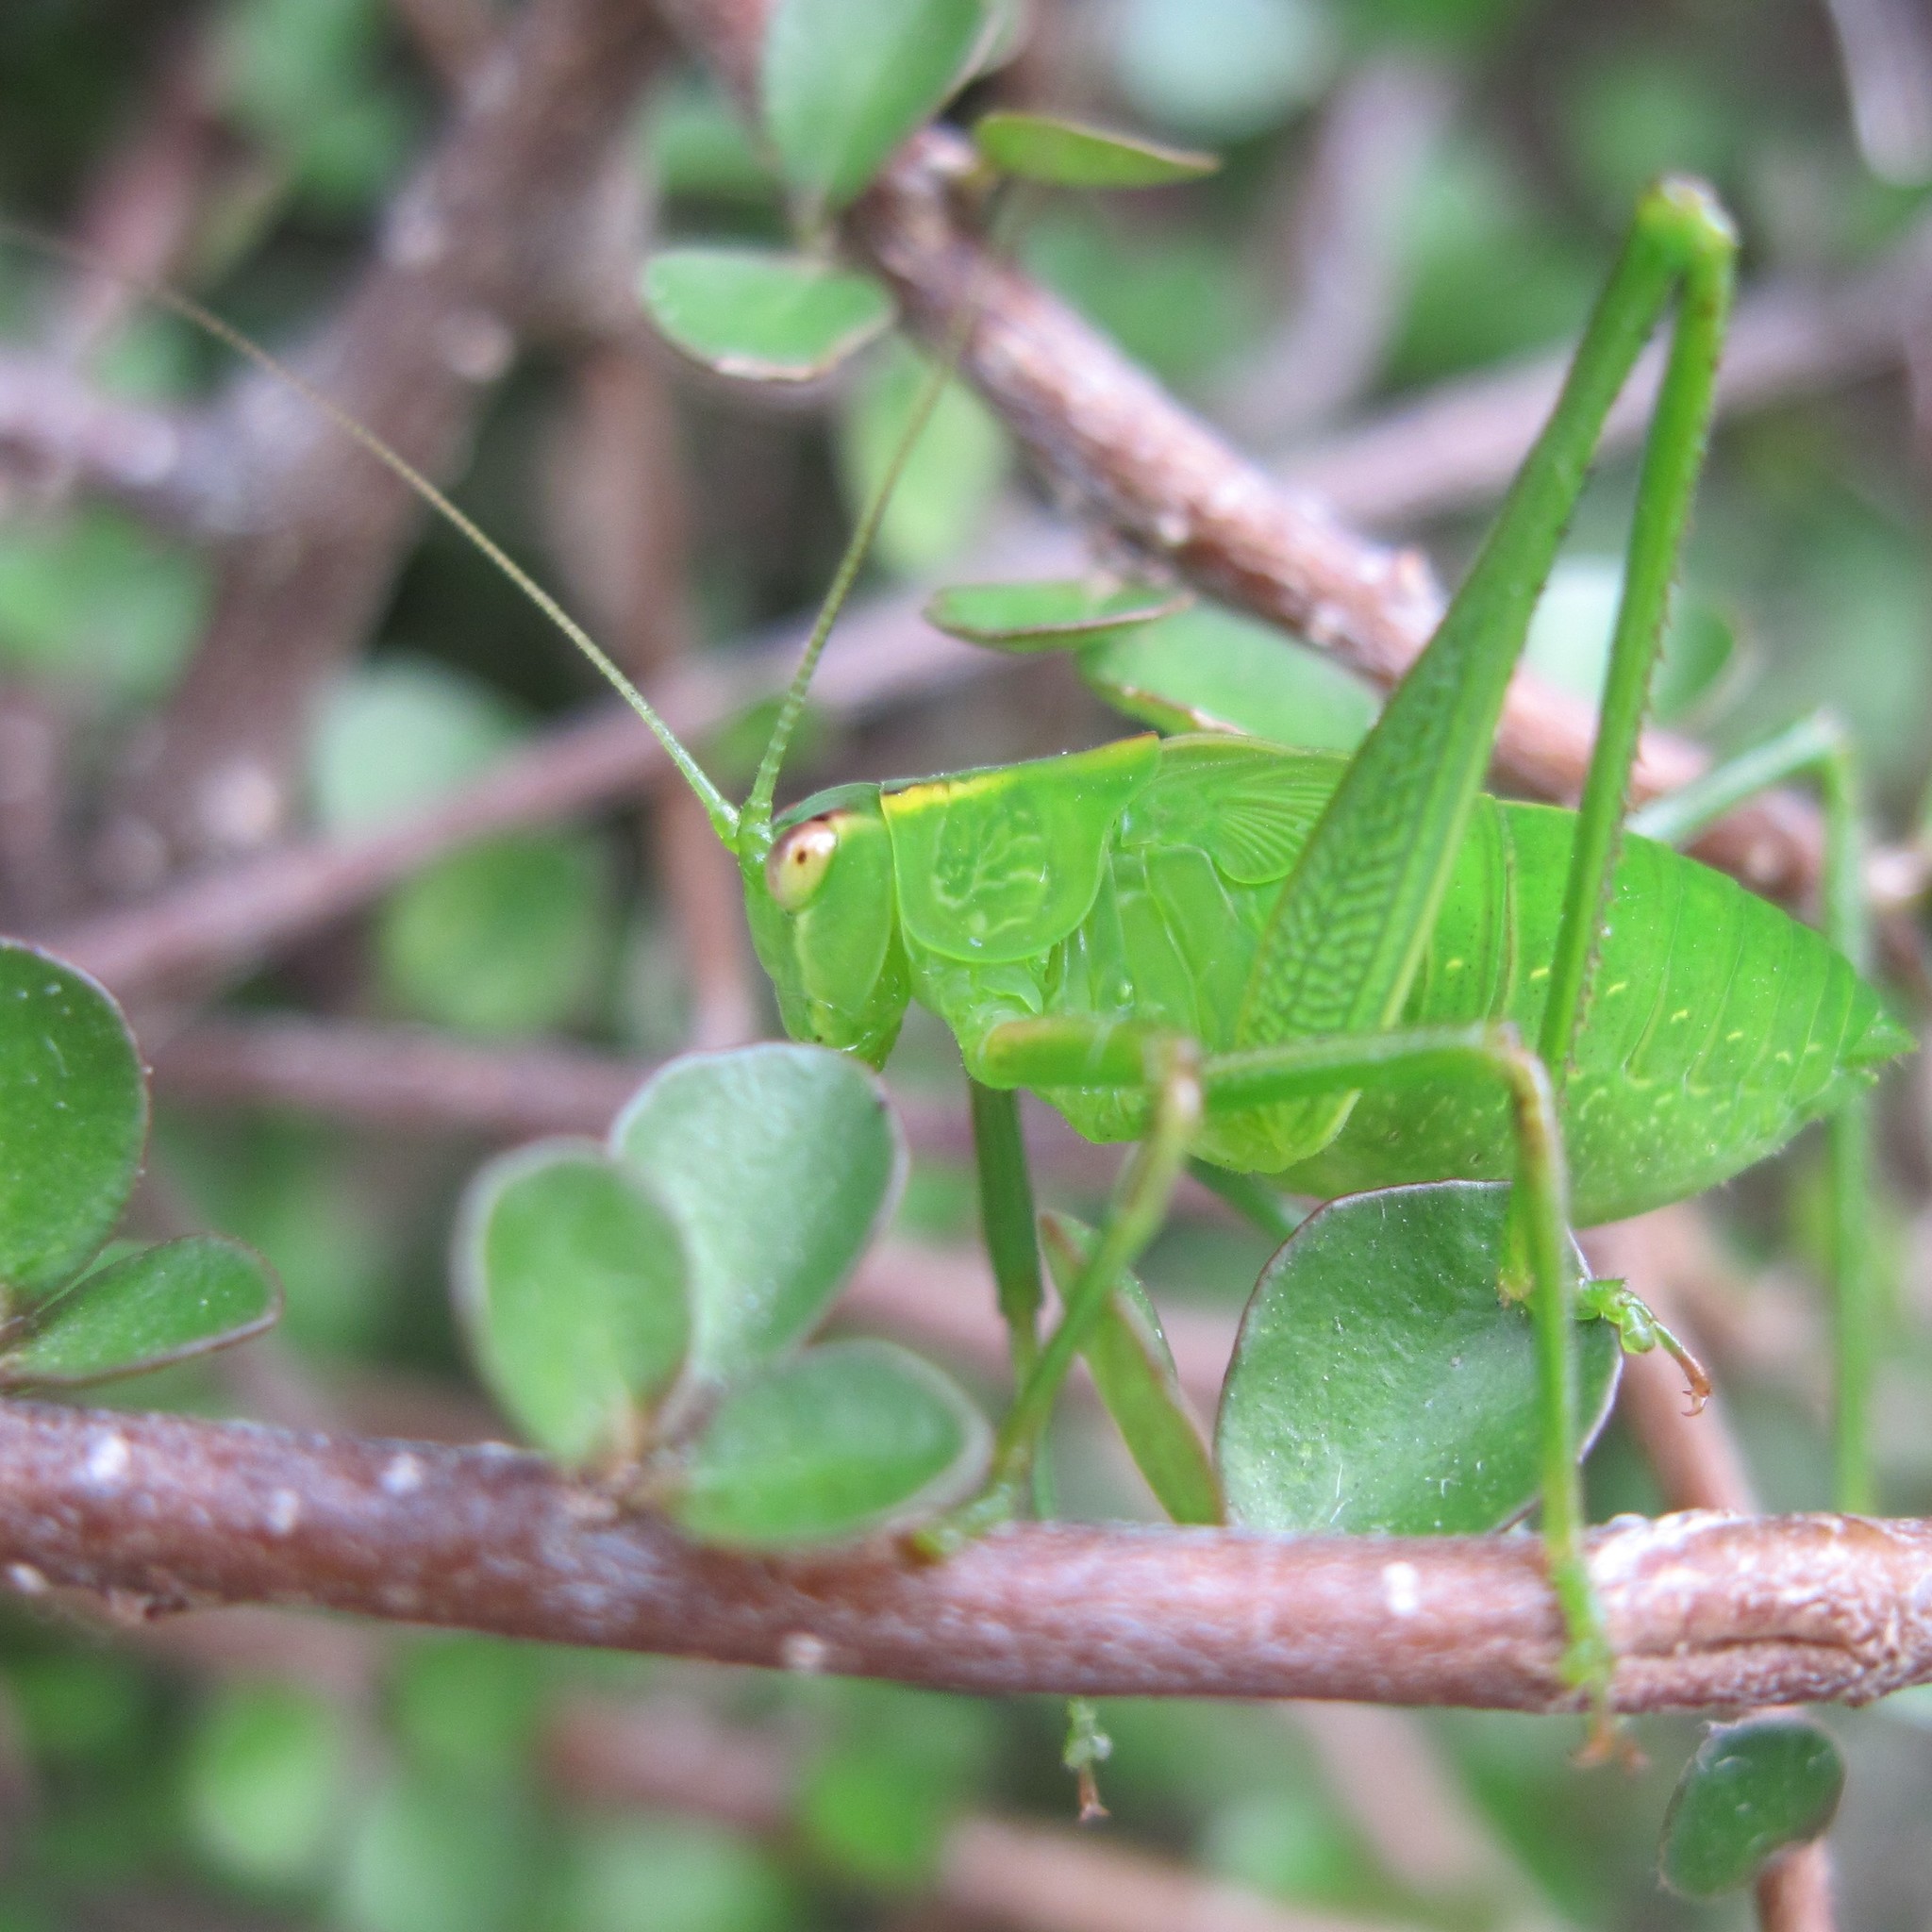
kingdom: Animalia
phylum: Arthropoda
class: Insecta
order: Orthoptera
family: Tettigoniidae
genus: Caedicia
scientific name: Caedicia simplex
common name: Common garden katydid
